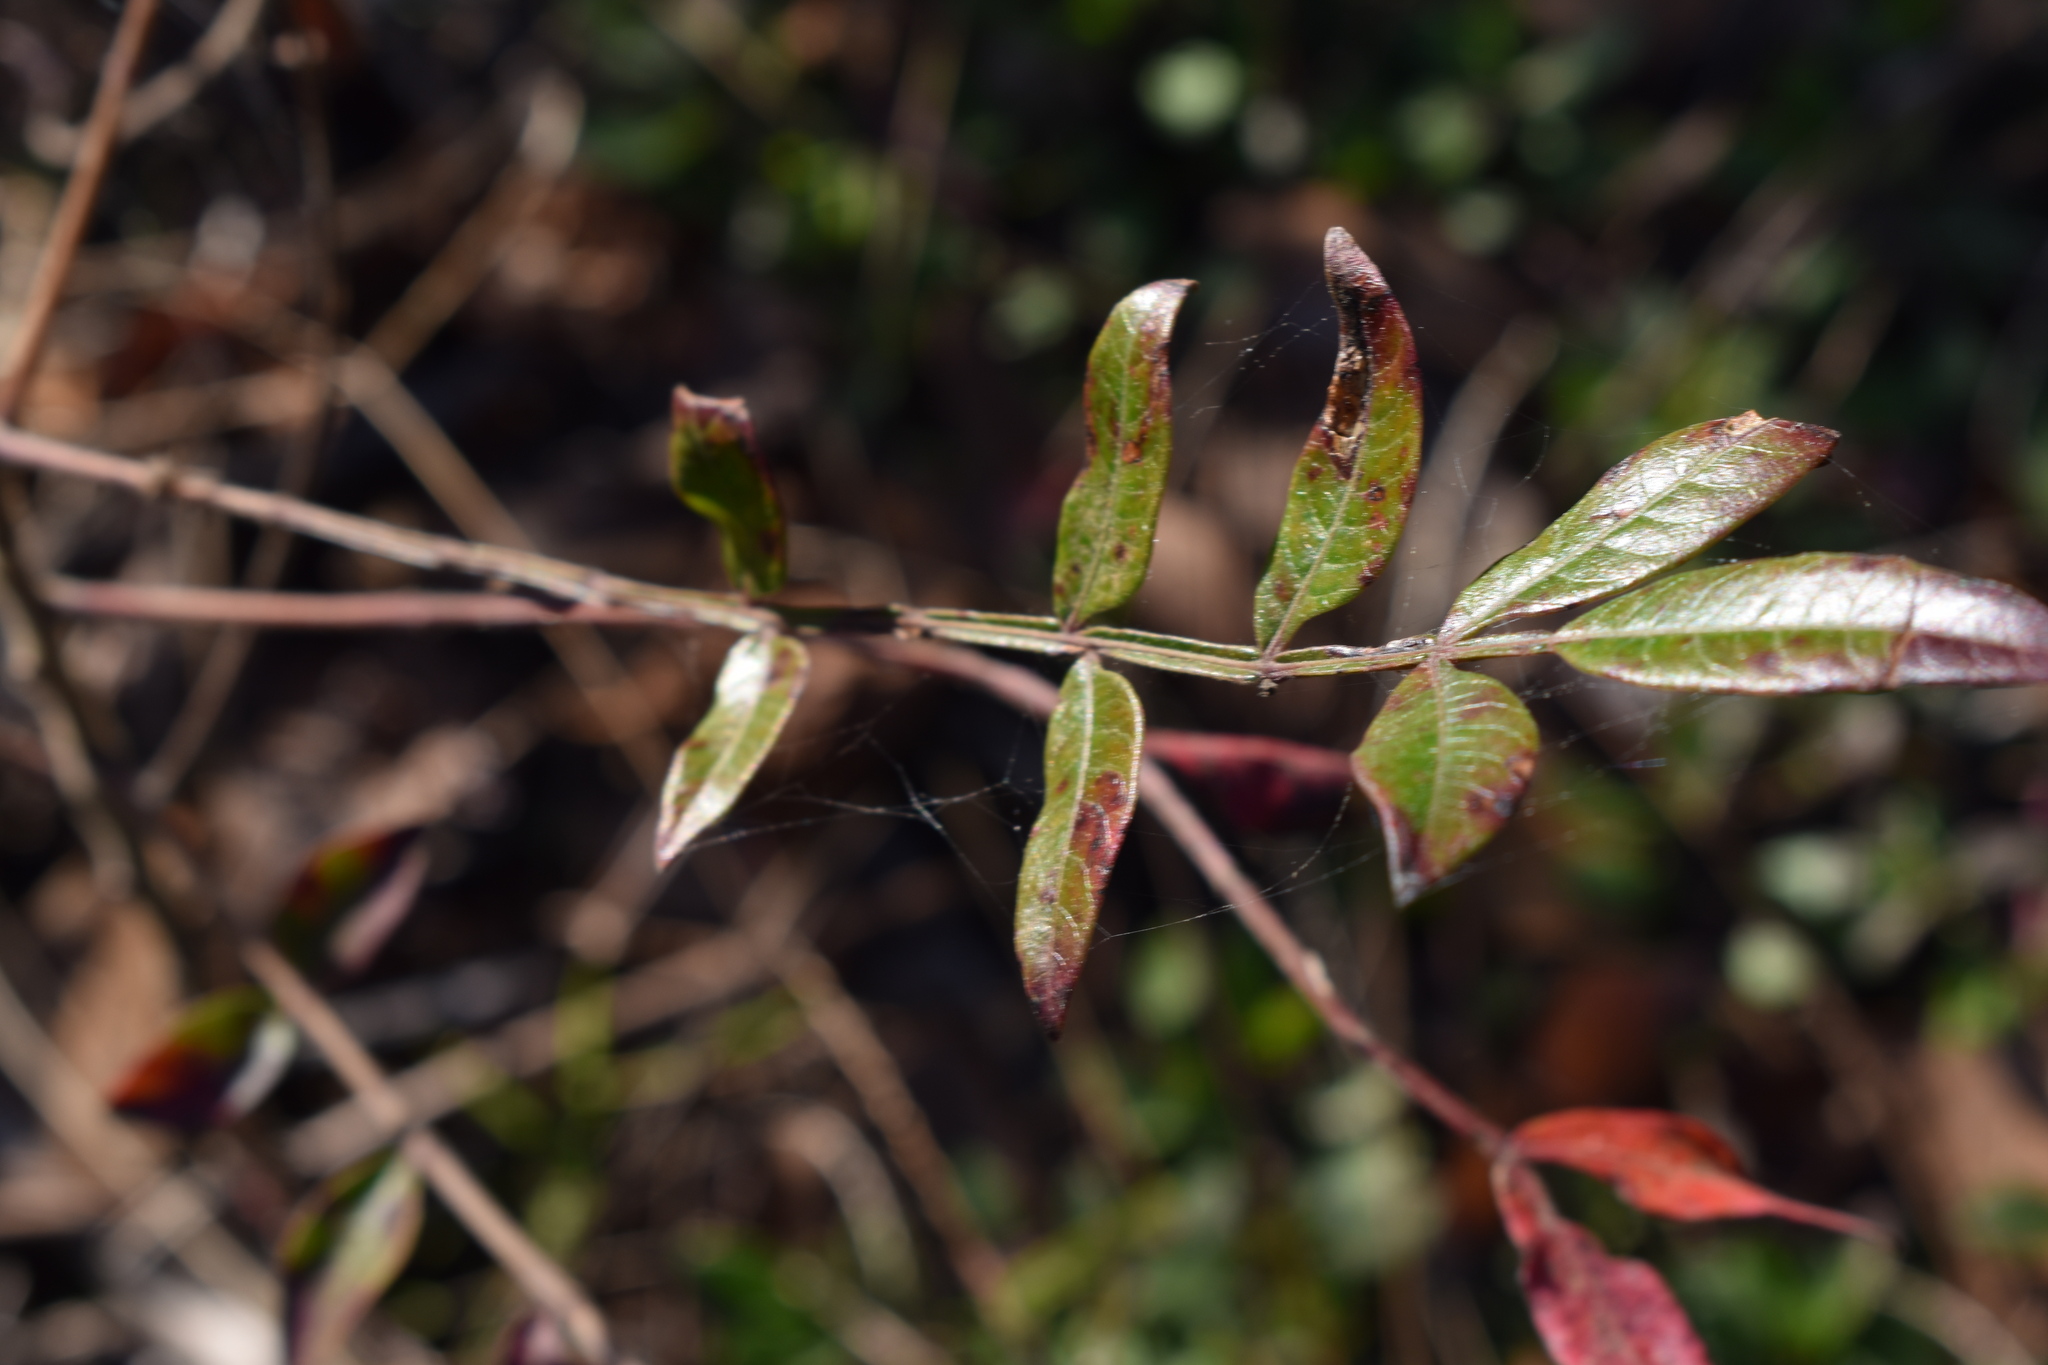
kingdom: Plantae
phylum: Tracheophyta
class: Magnoliopsida
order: Sapindales
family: Anacardiaceae
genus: Rhus
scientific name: Rhus copallina
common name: Shining sumac
